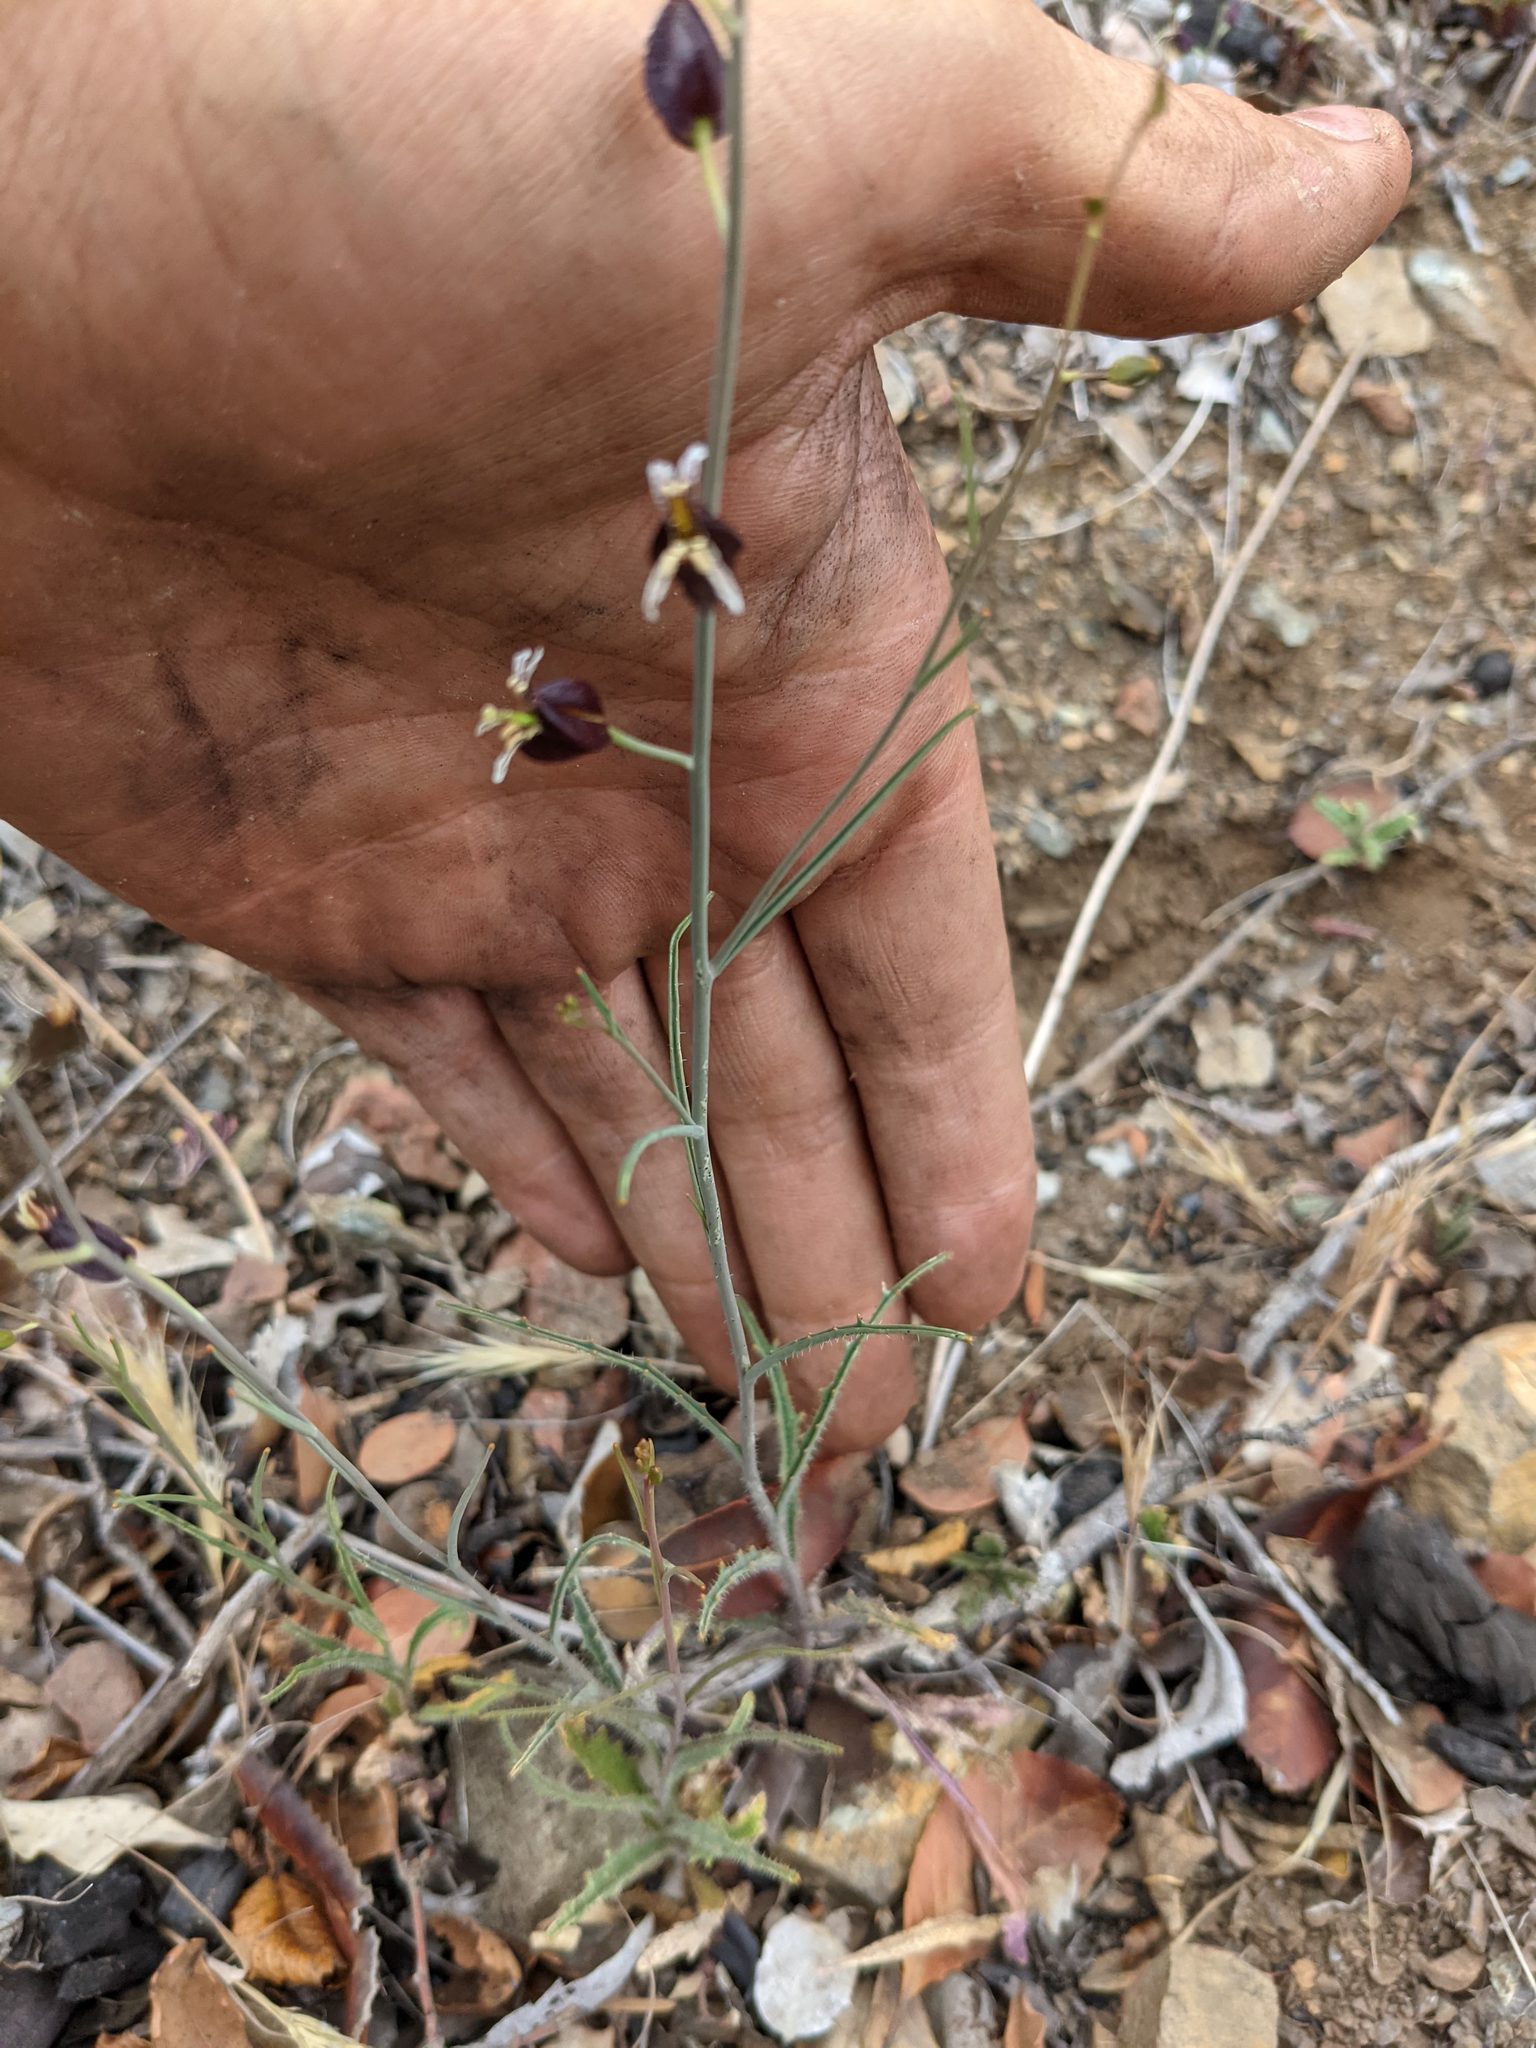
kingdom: Plantae
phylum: Tracheophyta
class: Magnoliopsida
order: Brassicales
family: Brassicaceae
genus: Streptanthus
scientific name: Streptanthus glandulosus
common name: Jewel-flower
